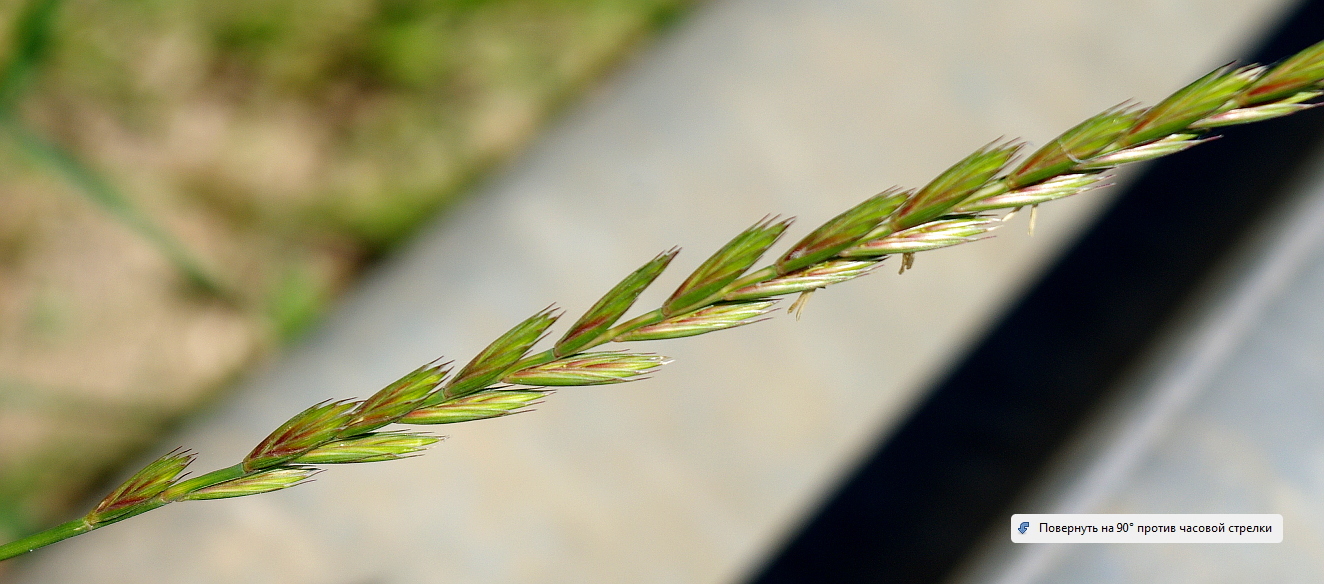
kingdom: Plantae
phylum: Tracheophyta
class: Liliopsida
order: Poales
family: Poaceae
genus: Elymus
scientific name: Elymus repens
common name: Quackgrass
